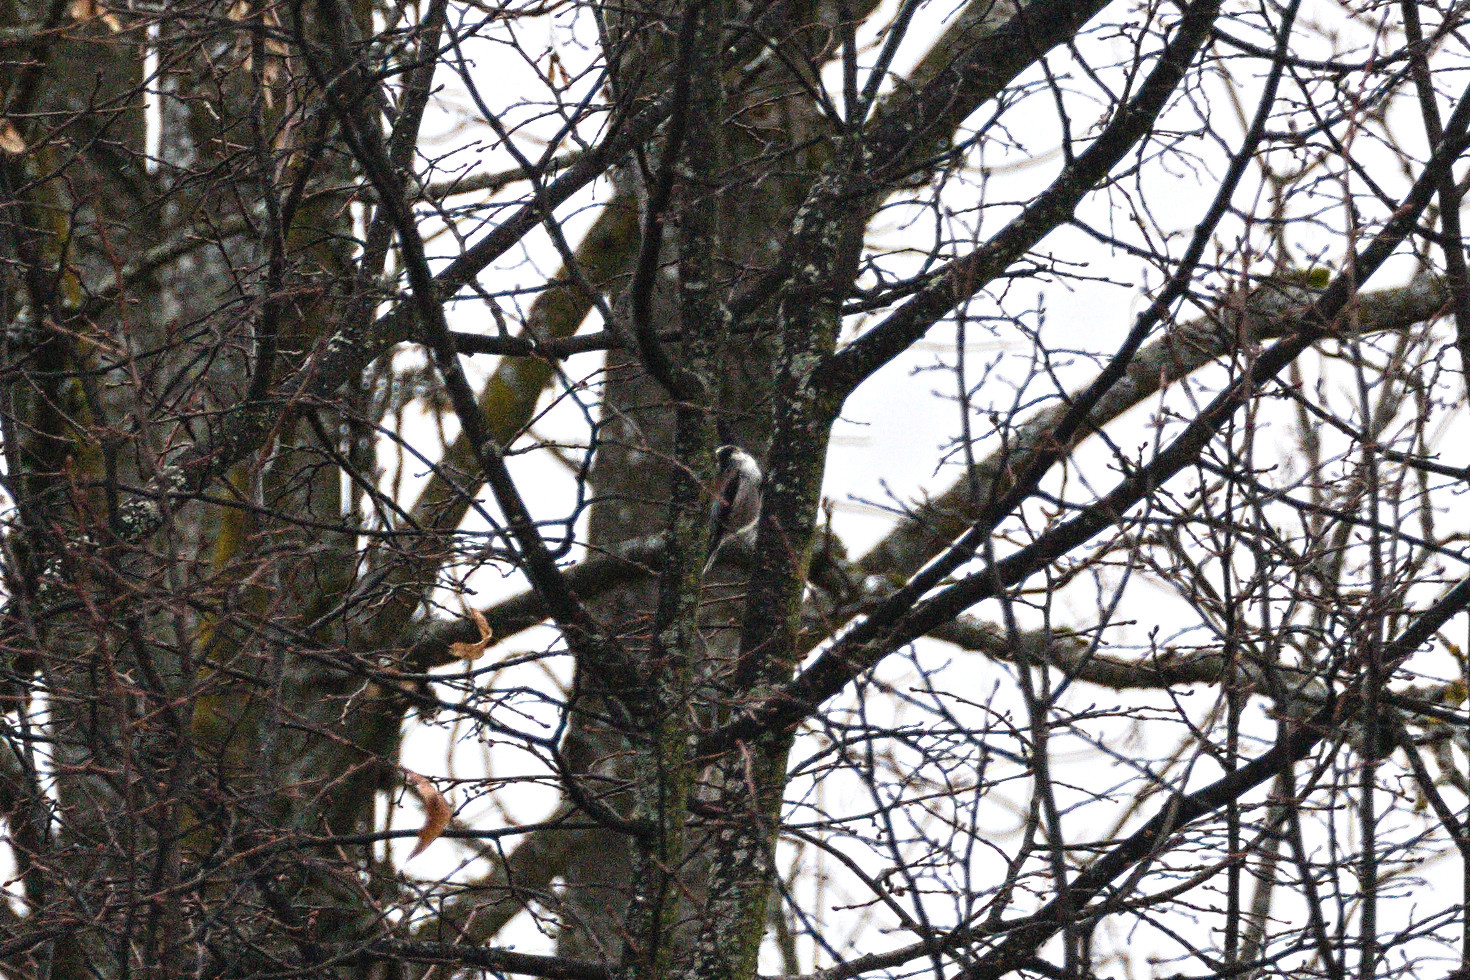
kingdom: Animalia
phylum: Chordata
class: Aves
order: Passeriformes
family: Aegithalidae
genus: Aegithalos
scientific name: Aegithalos caudatus
